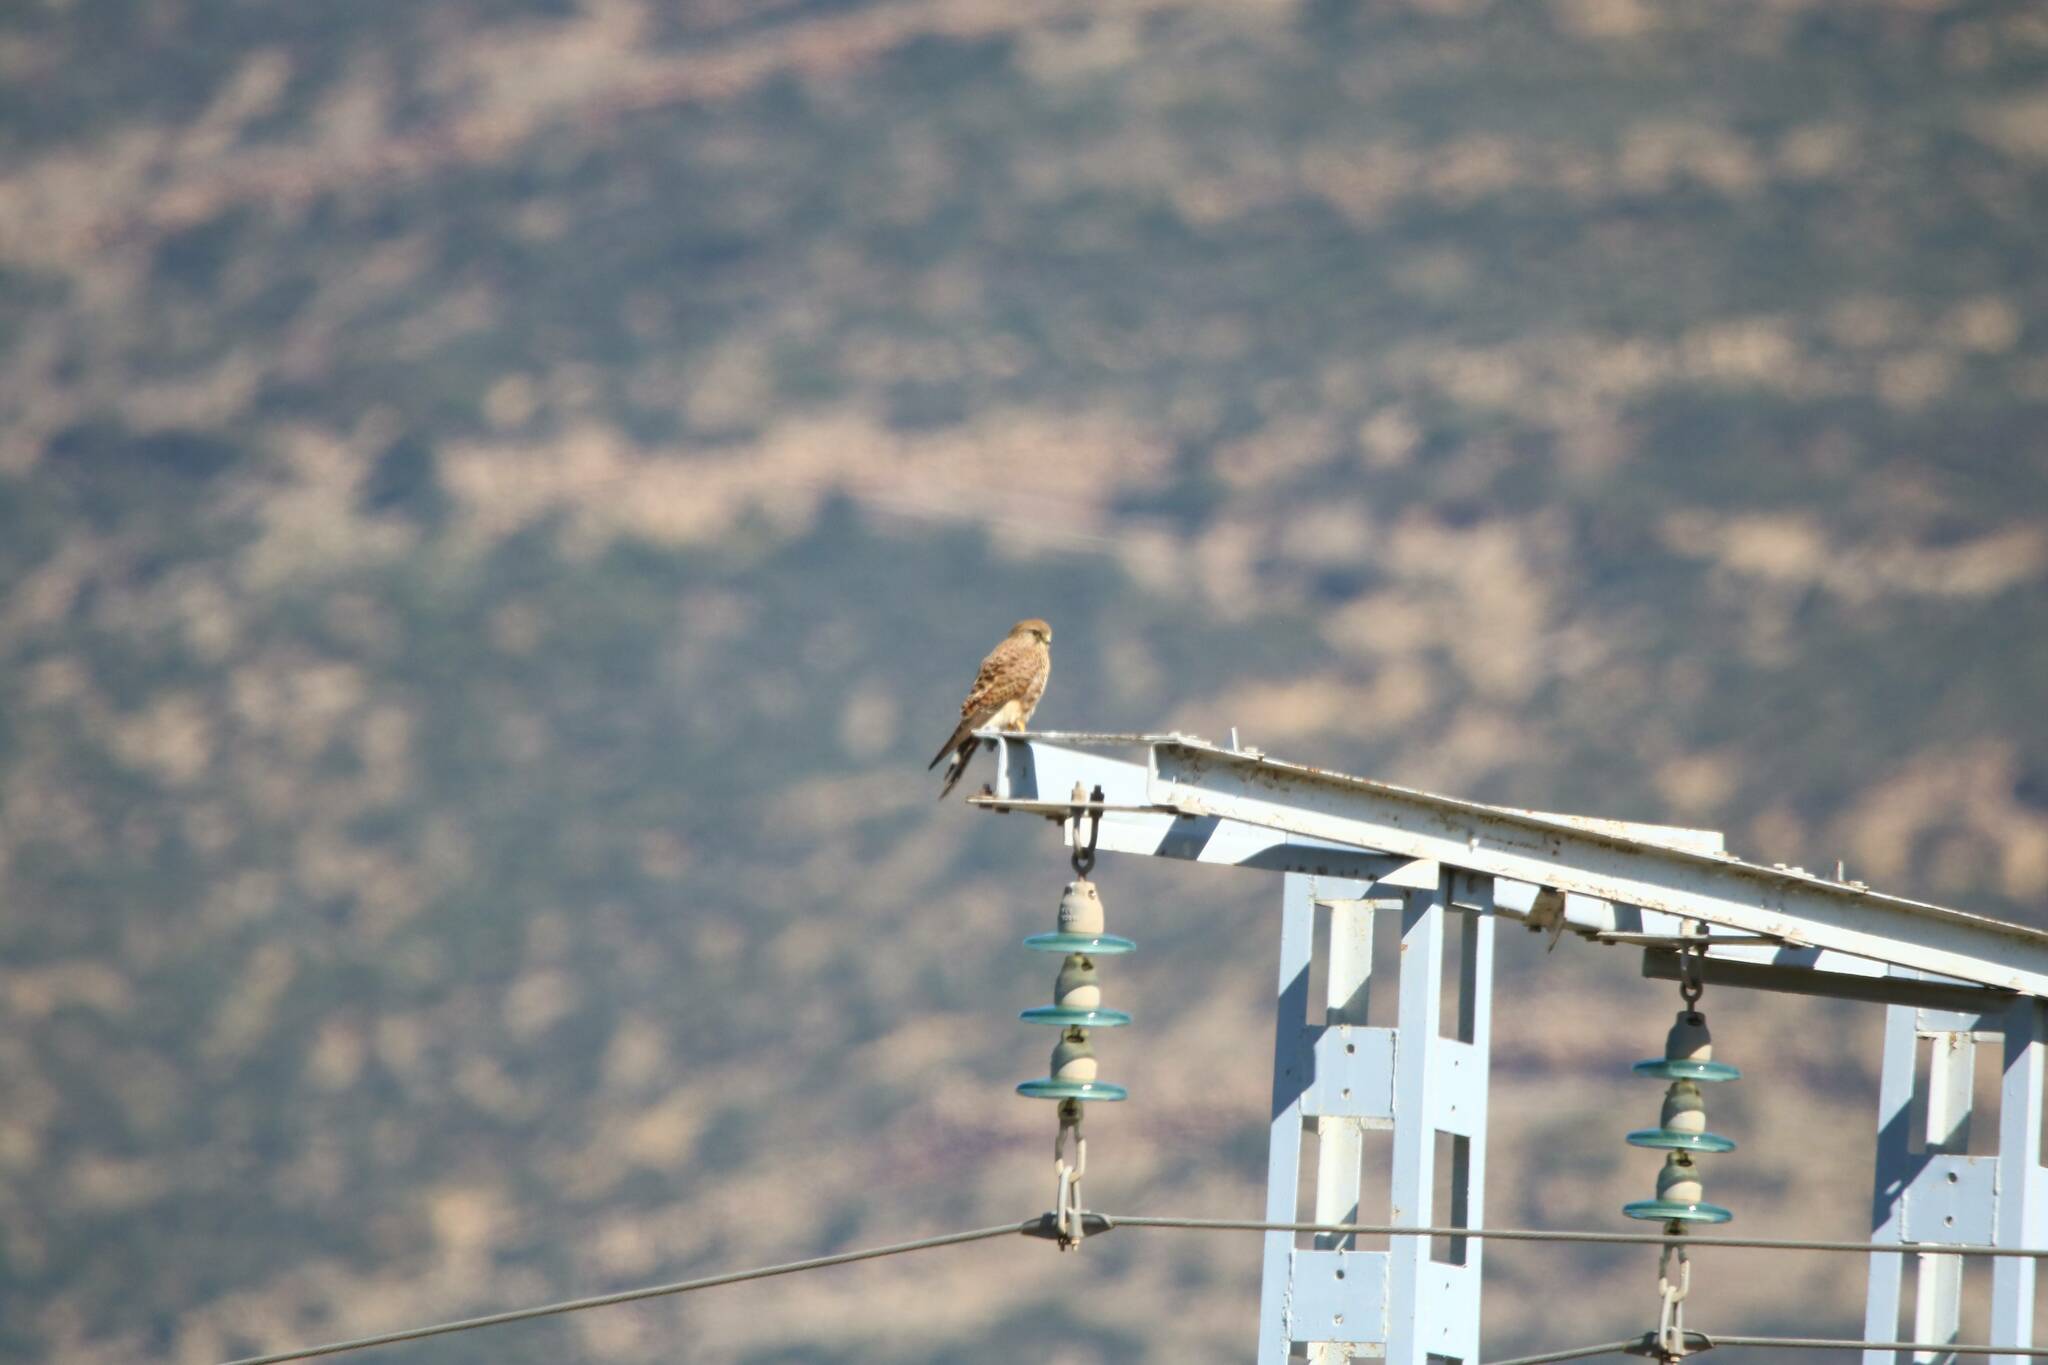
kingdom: Animalia
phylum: Chordata
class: Aves
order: Falconiformes
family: Falconidae
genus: Falco
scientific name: Falco tinnunculus
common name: Common kestrel
